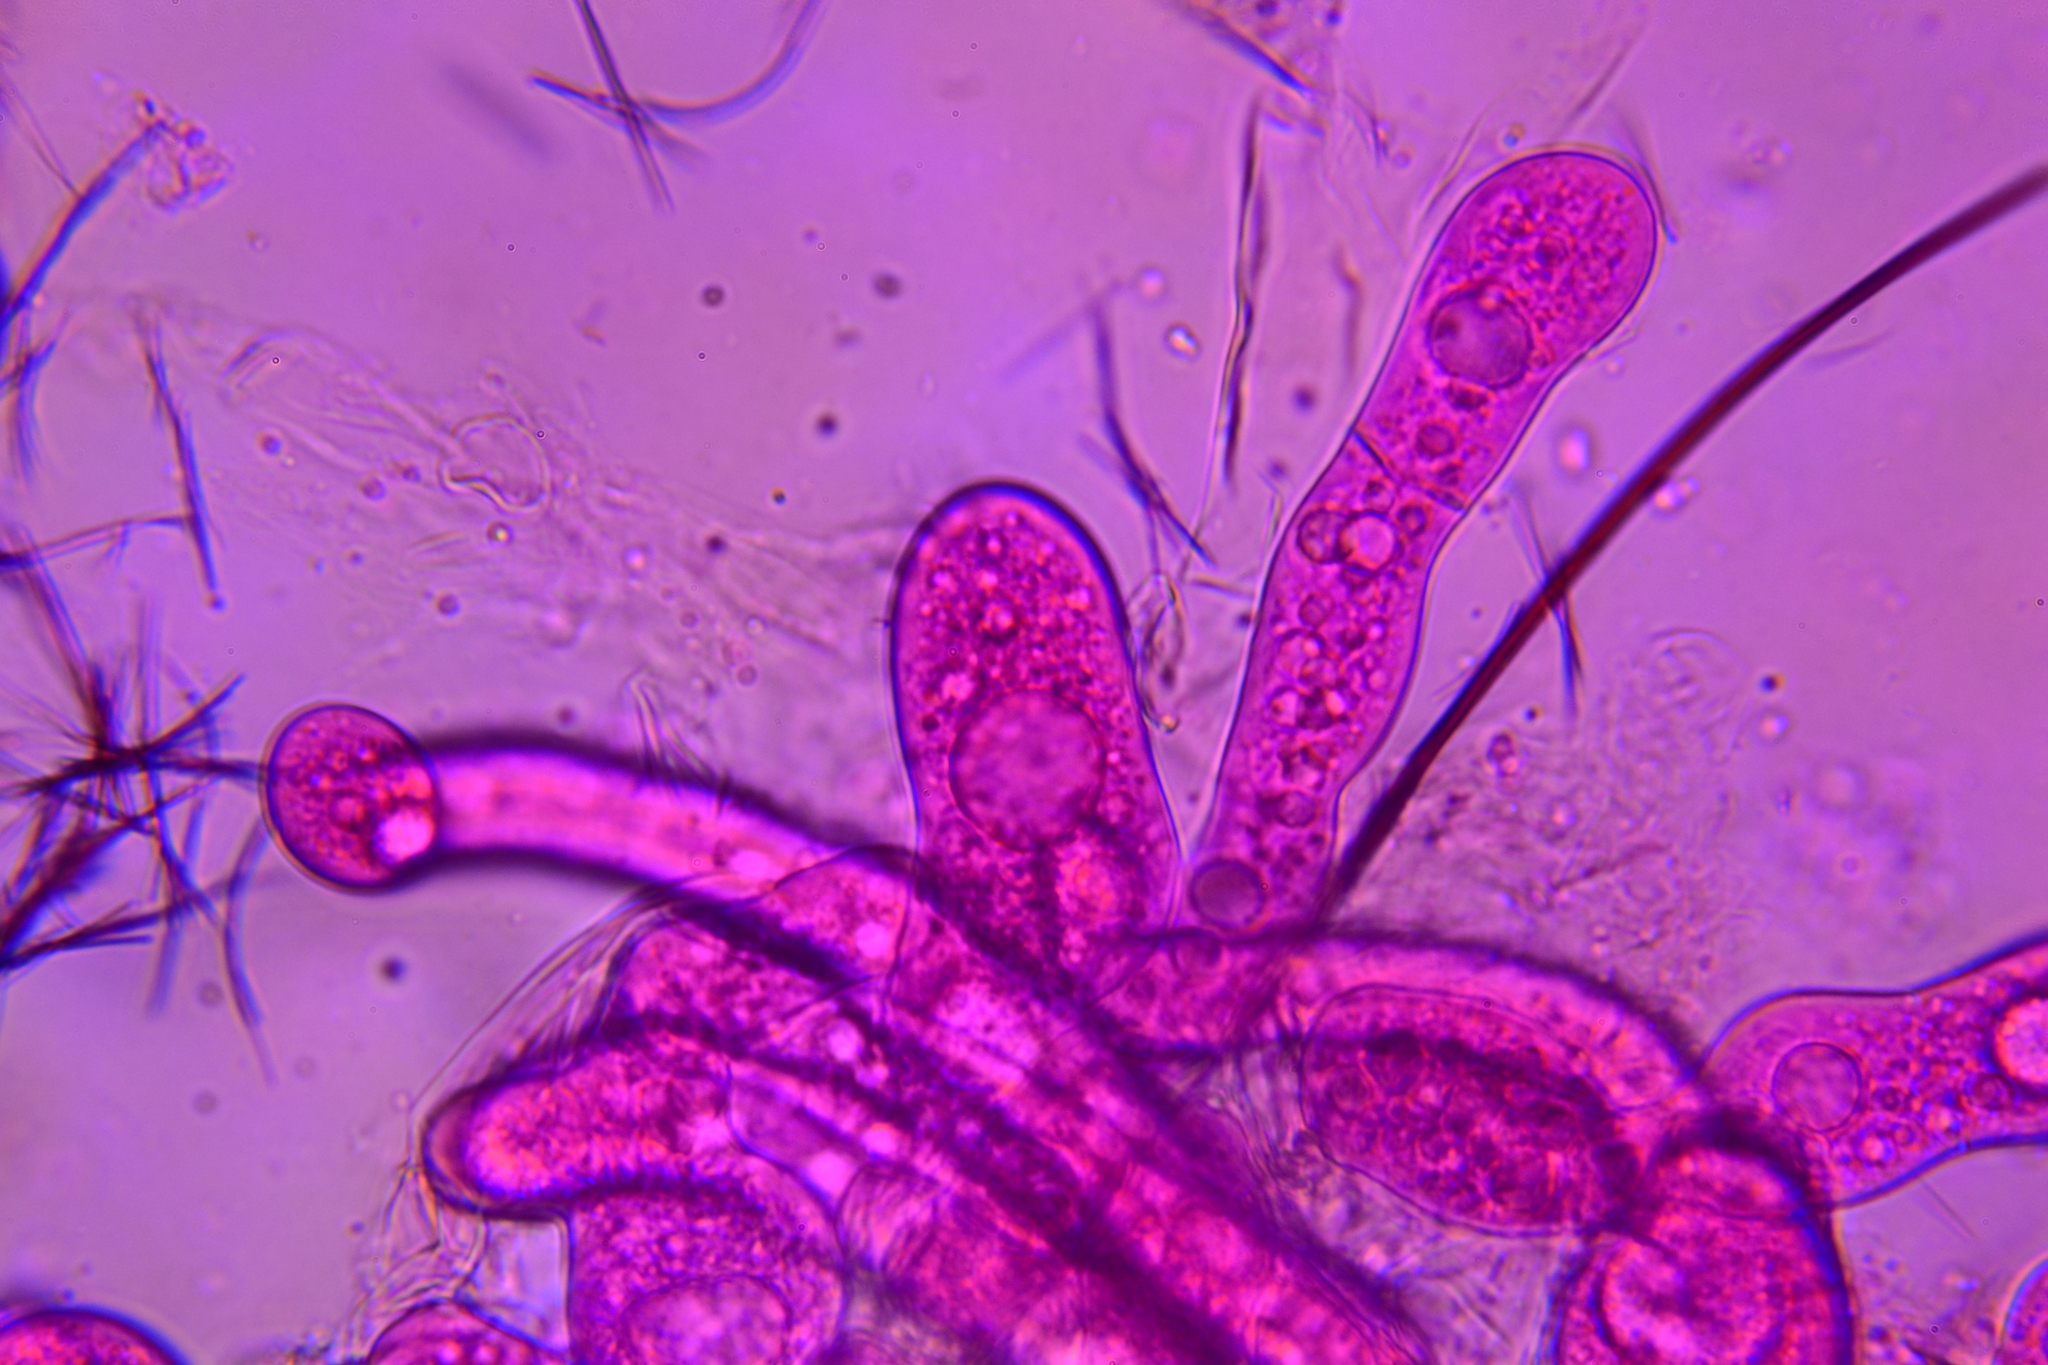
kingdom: Fungi
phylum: Entomophthoromycota
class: Entomophthoromycetes
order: Entomophthorales
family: Entomophthoraceae
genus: Arthrophaga
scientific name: Arthrophaga myriapodina
